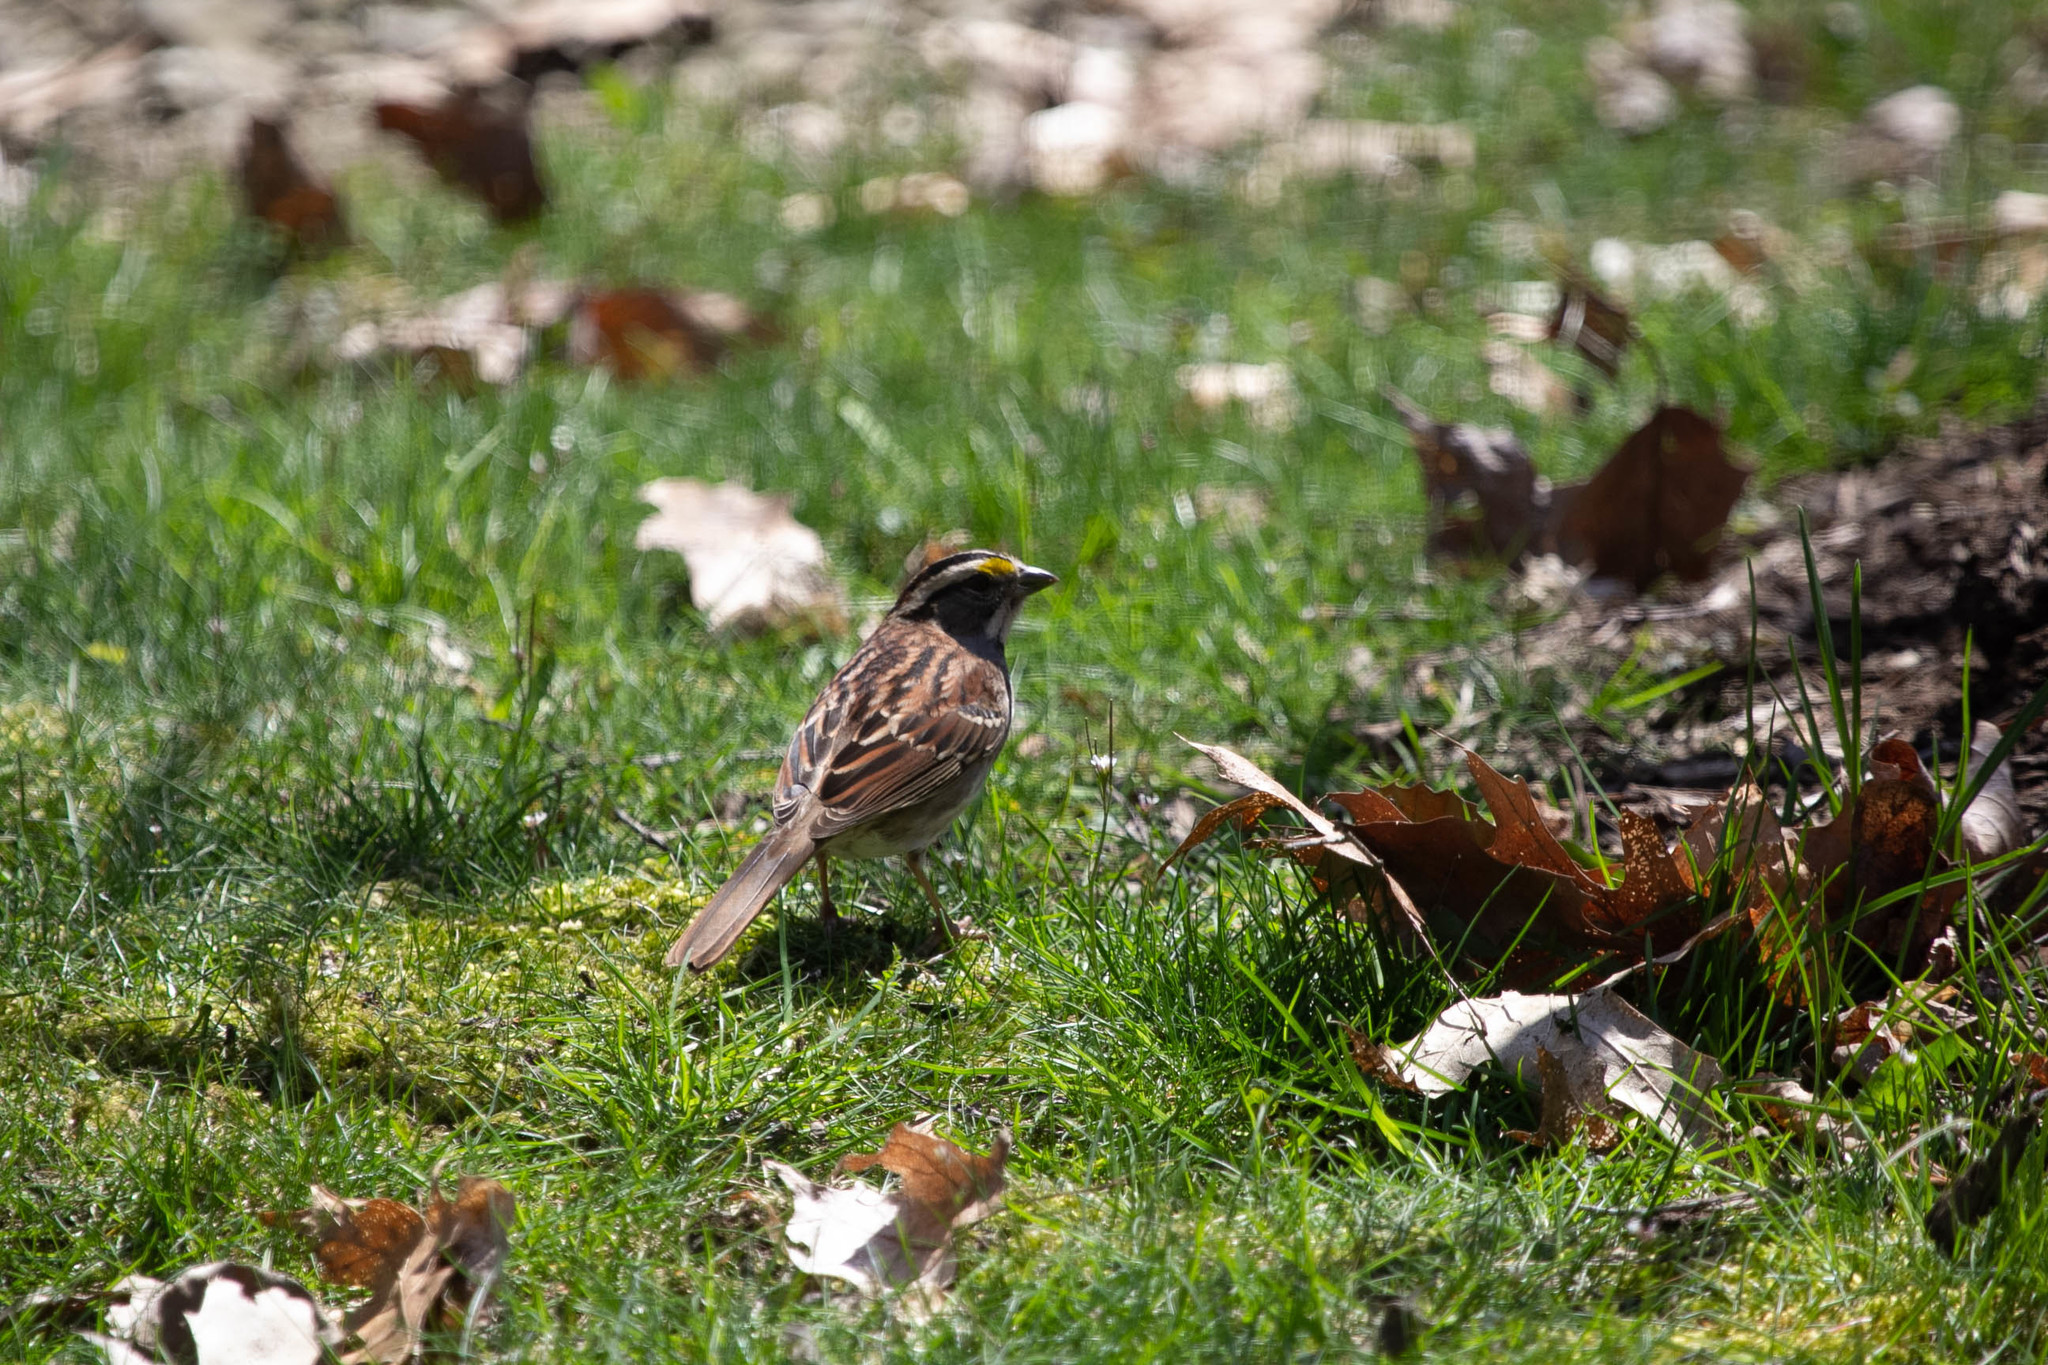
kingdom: Animalia
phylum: Chordata
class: Aves
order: Passeriformes
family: Passerellidae
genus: Zonotrichia
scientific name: Zonotrichia albicollis
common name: White-throated sparrow
